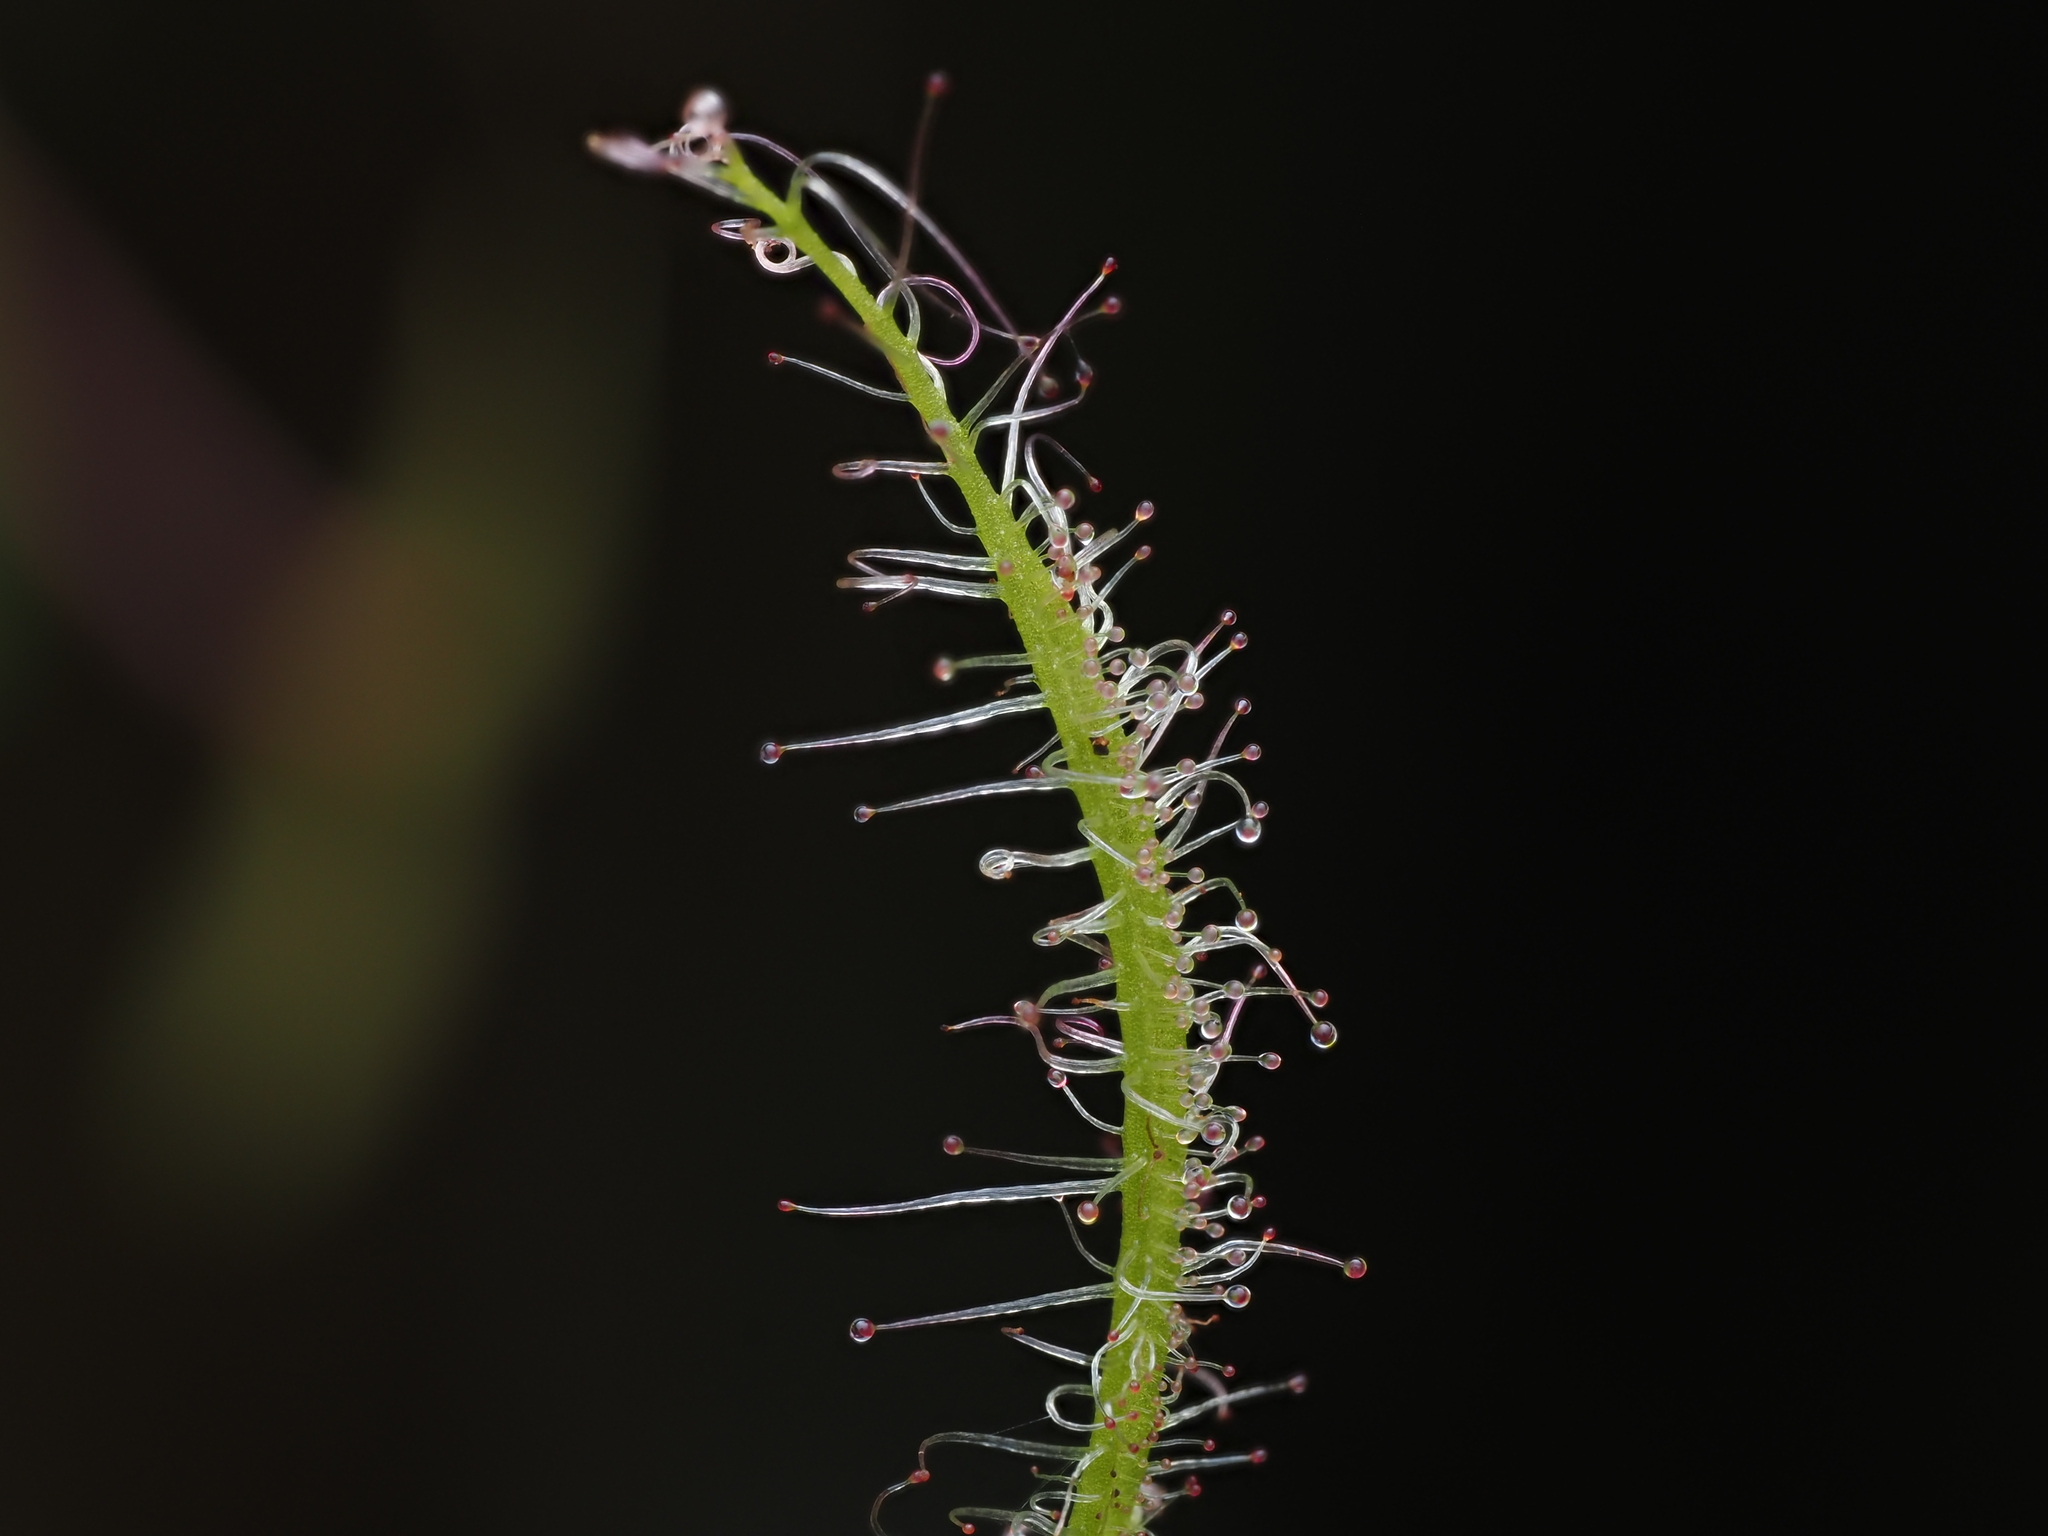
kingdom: Plantae
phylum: Tracheophyta
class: Magnoliopsida
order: Caryophyllales
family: Droseraceae
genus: Drosera
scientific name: Drosera binata
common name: Forked sundew
